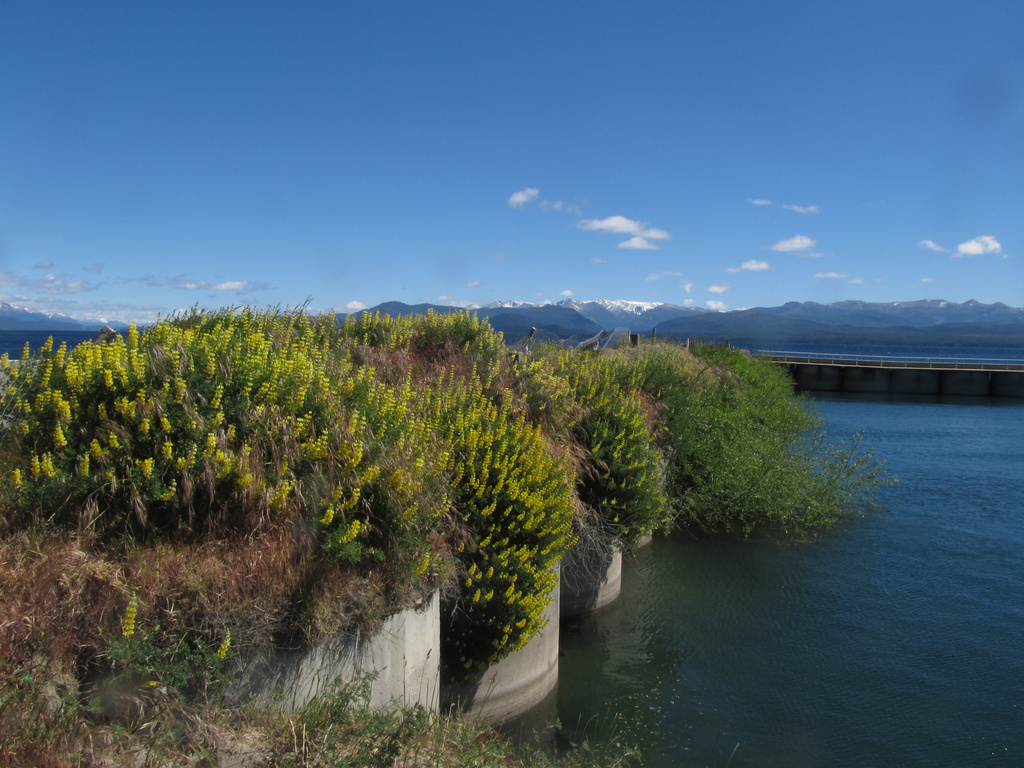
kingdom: Plantae
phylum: Tracheophyta
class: Magnoliopsida
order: Fabales
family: Fabaceae
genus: Lupinus
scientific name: Lupinus arboreus
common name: Yellow bush lupine
